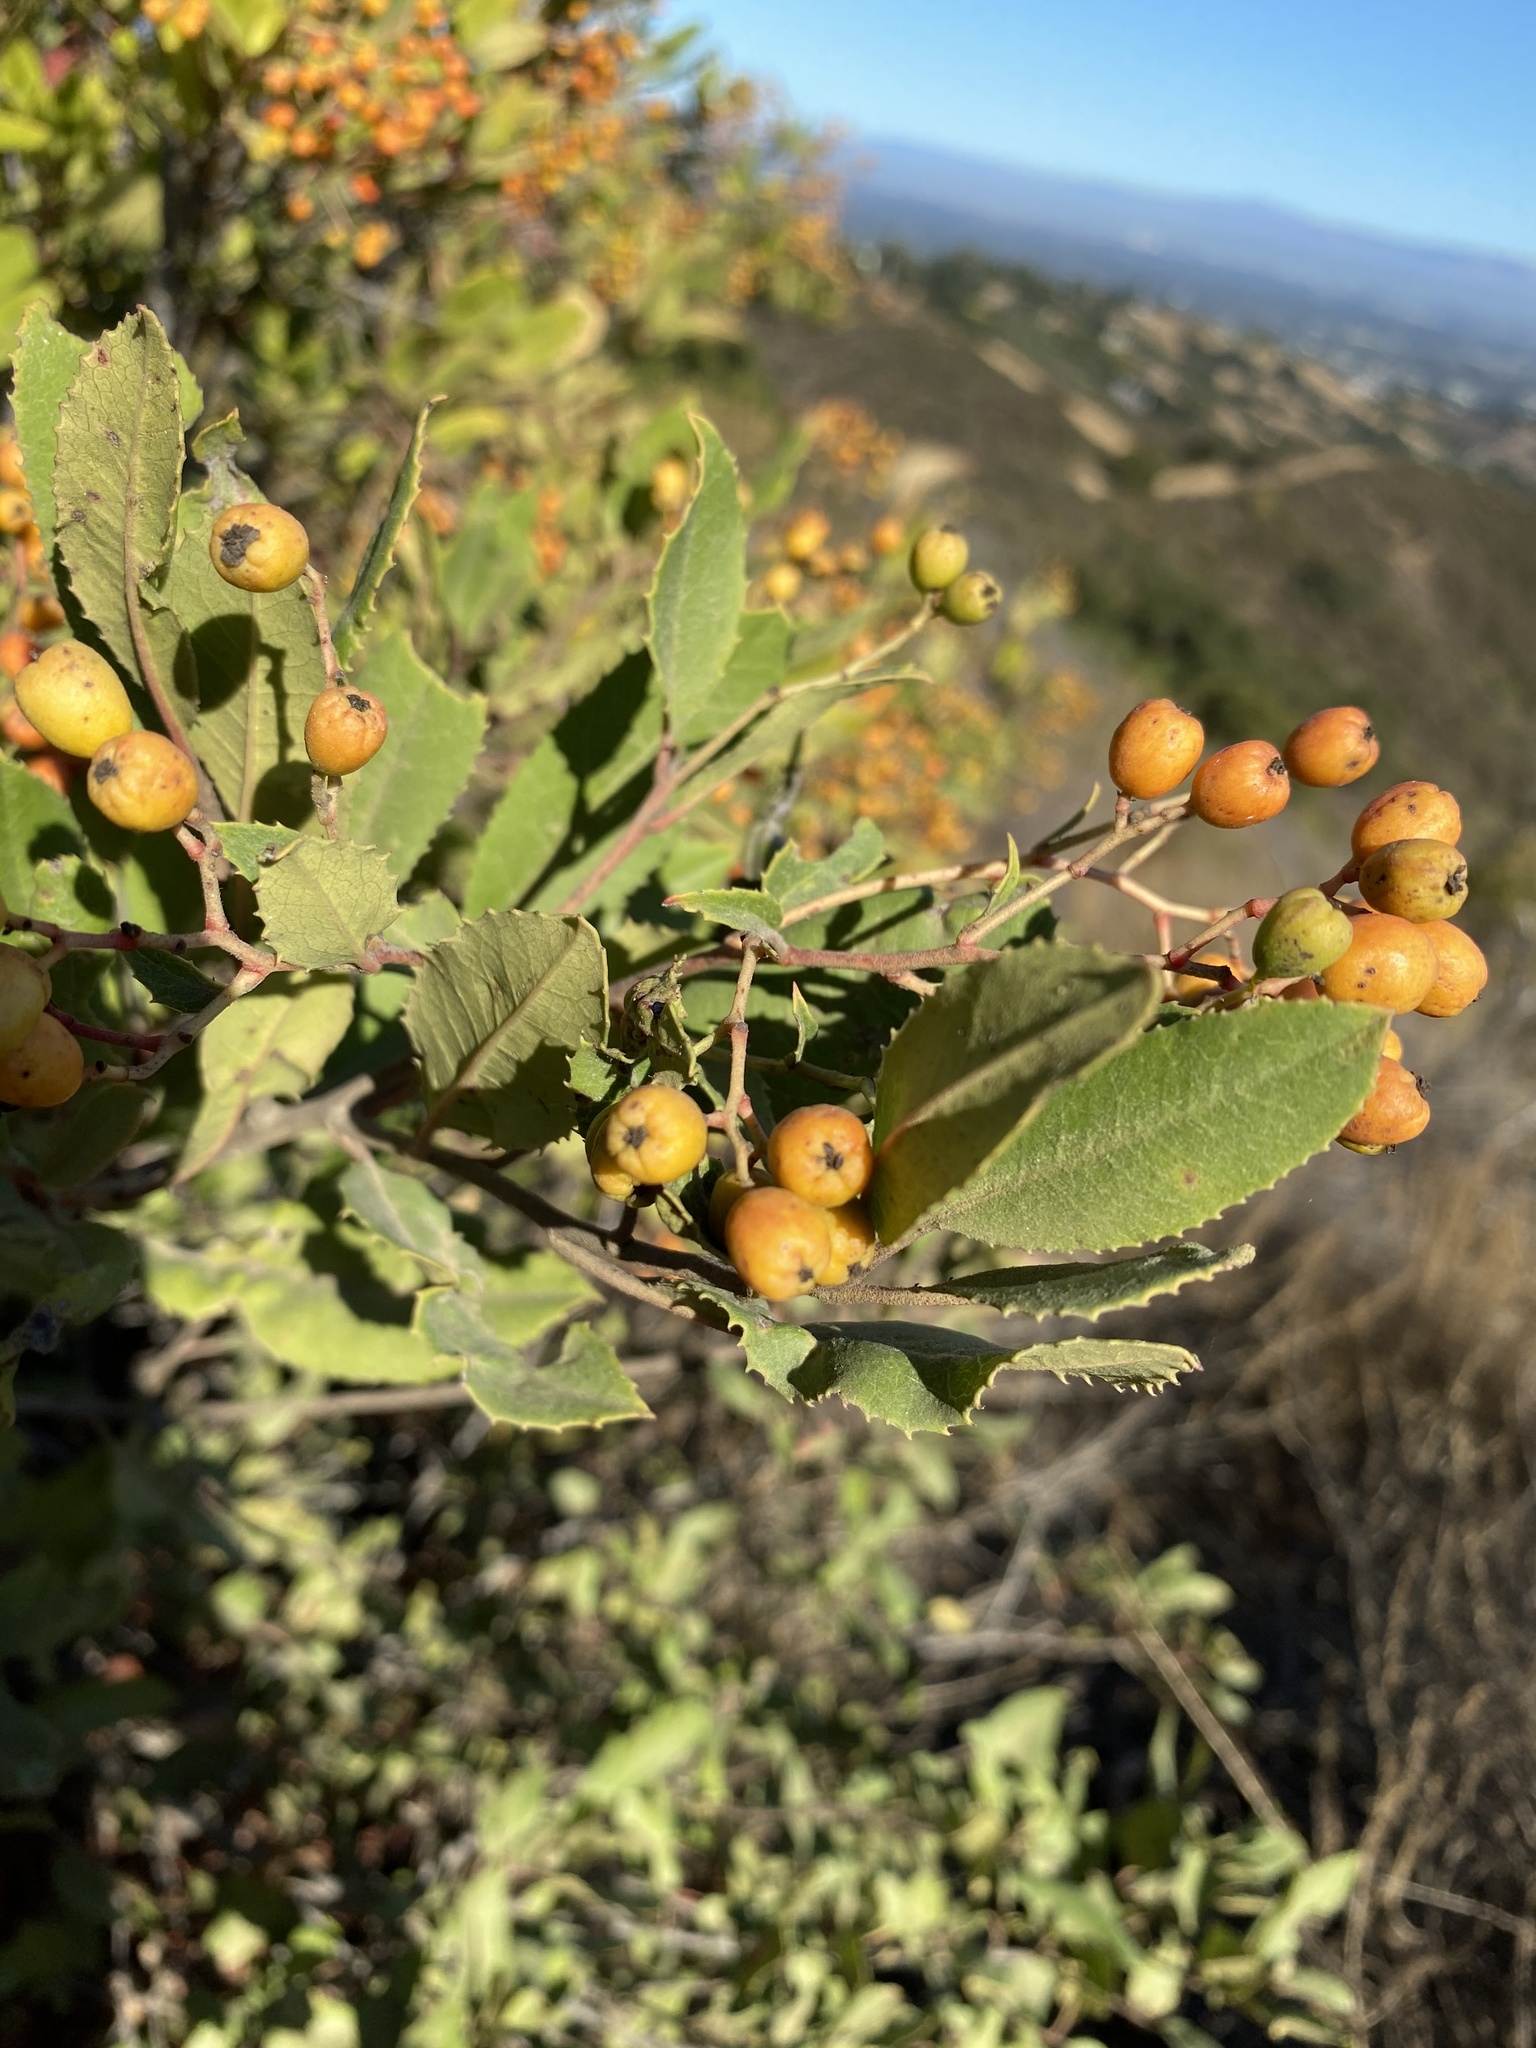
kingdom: Plantae
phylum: Tracheophyta
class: Magnoliopsida
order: Rosales
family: Rosaceae
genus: Heteromeles
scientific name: Heteromeles arbutifolia
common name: California-holly
